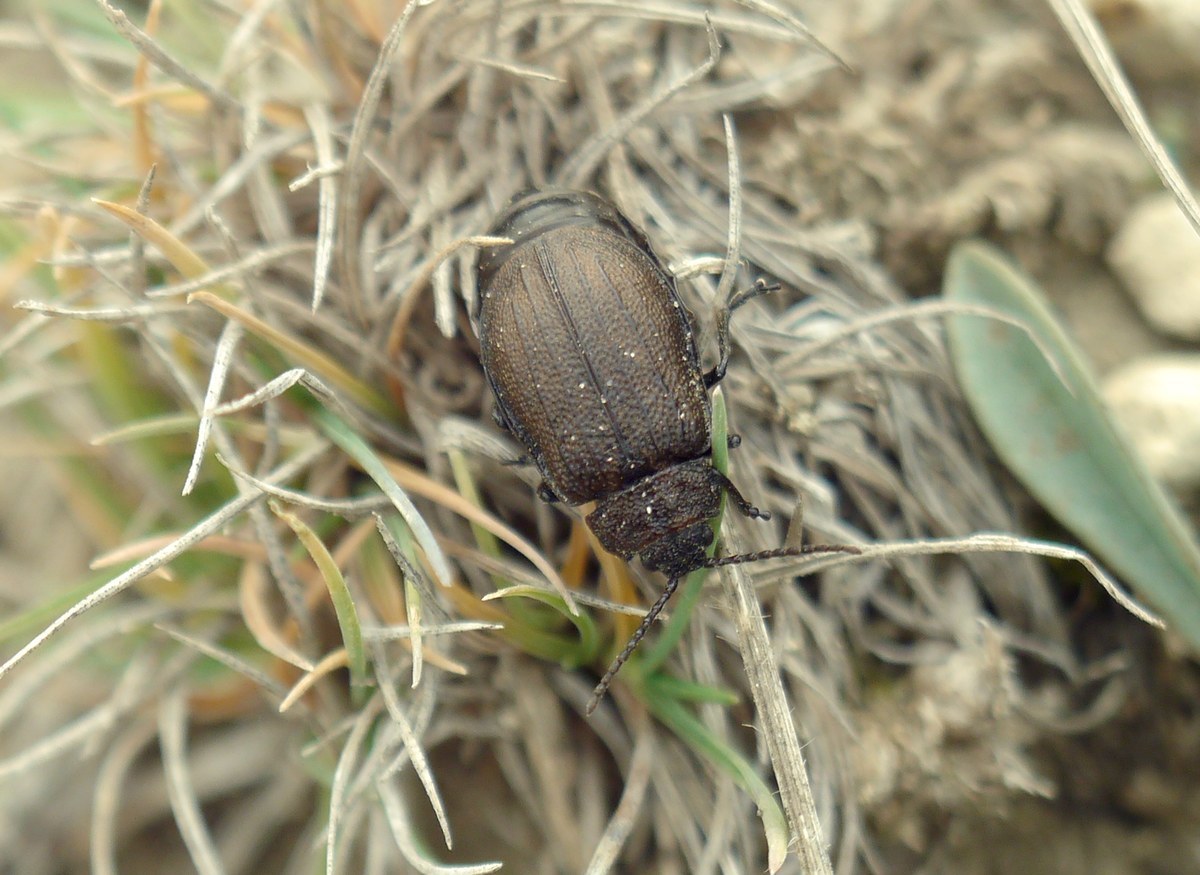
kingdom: Animalia
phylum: Arthropoda
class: Insecta
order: Coleoptera
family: Chrysomelidae
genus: Galeruca
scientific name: Galeruca tanaceti
